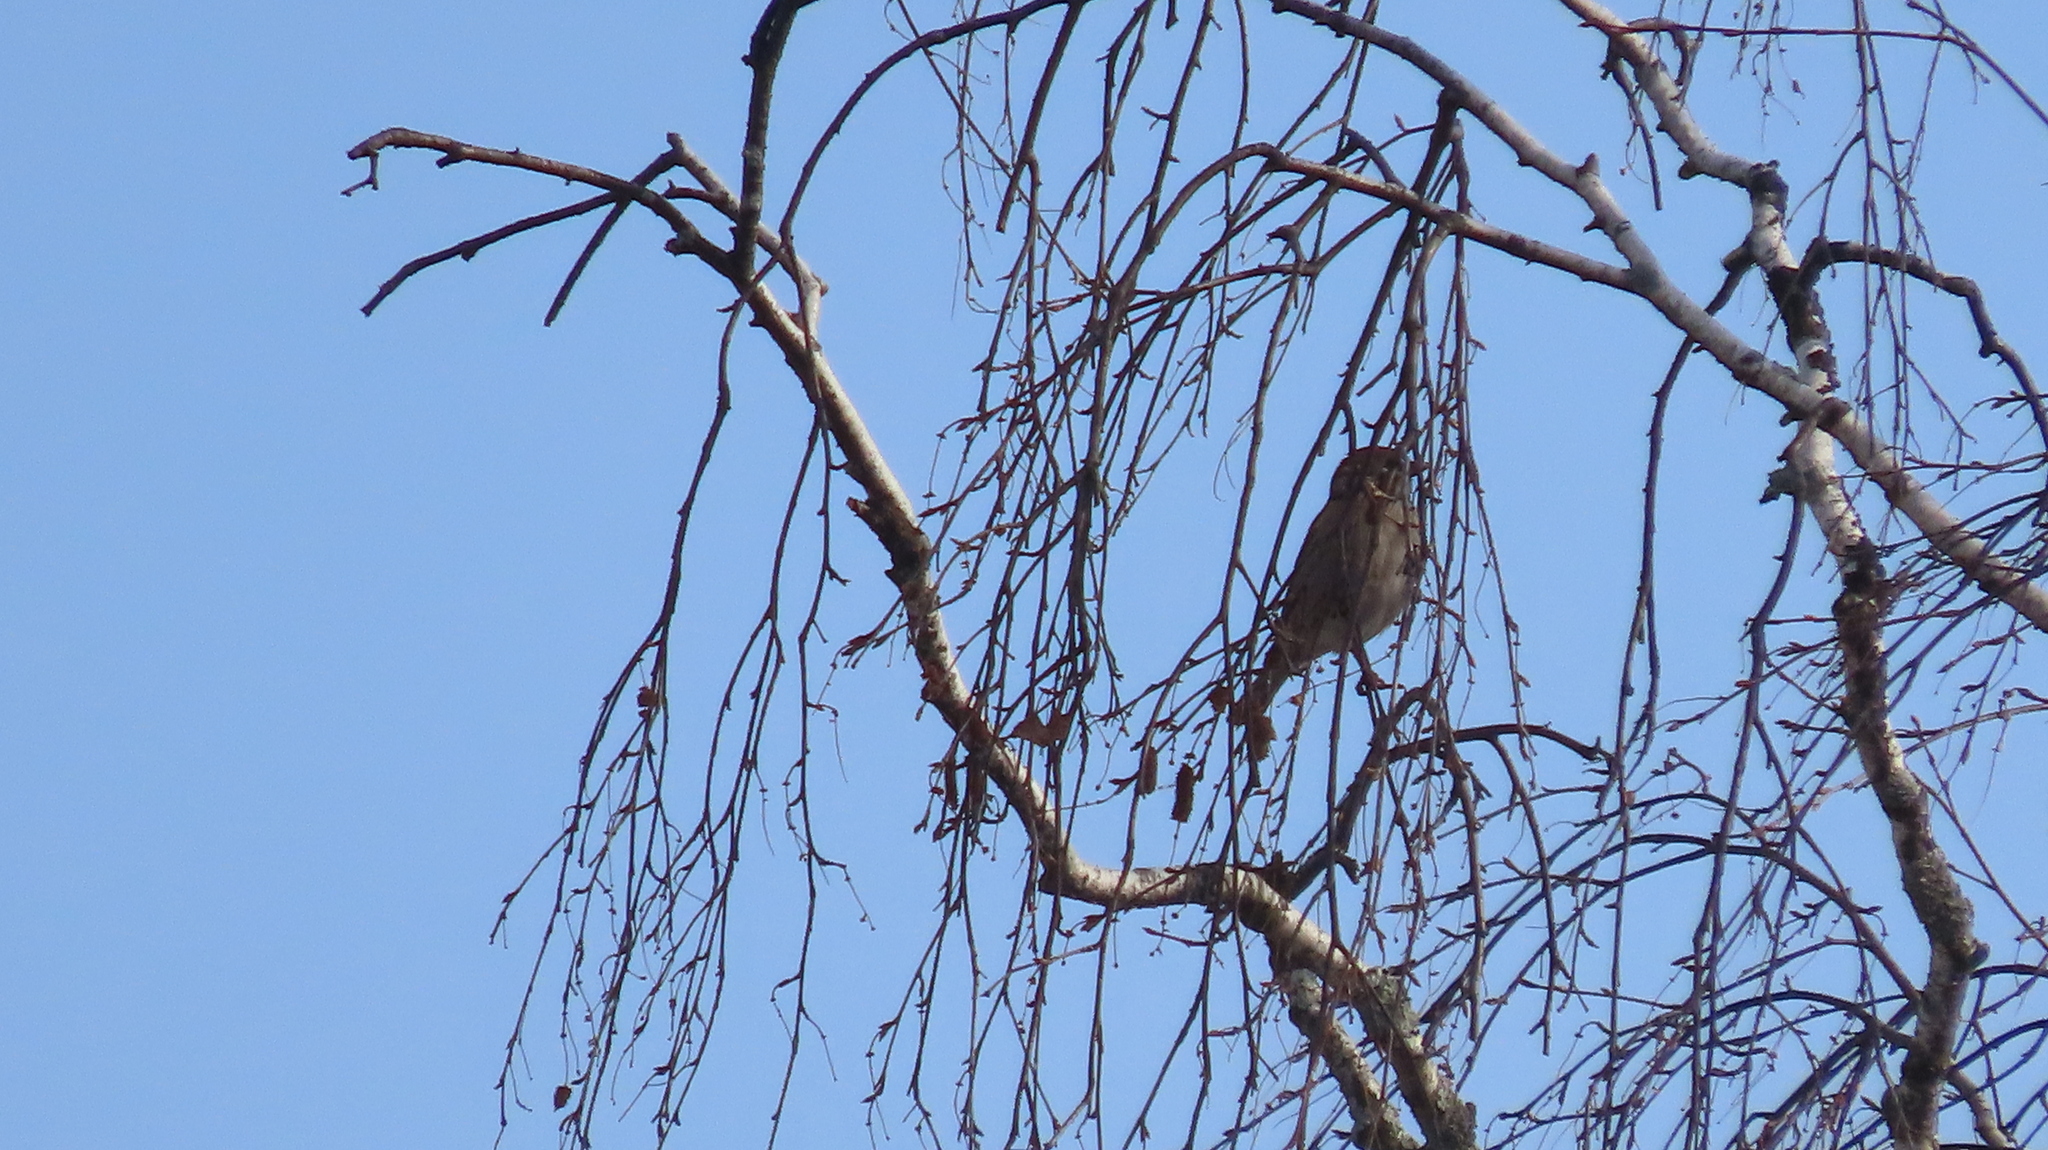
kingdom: Animalia
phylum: Chordata
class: Aves
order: Passeriformes
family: Passeridae
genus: Passer
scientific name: Passer montanus
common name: Eurasian tree sparrow
